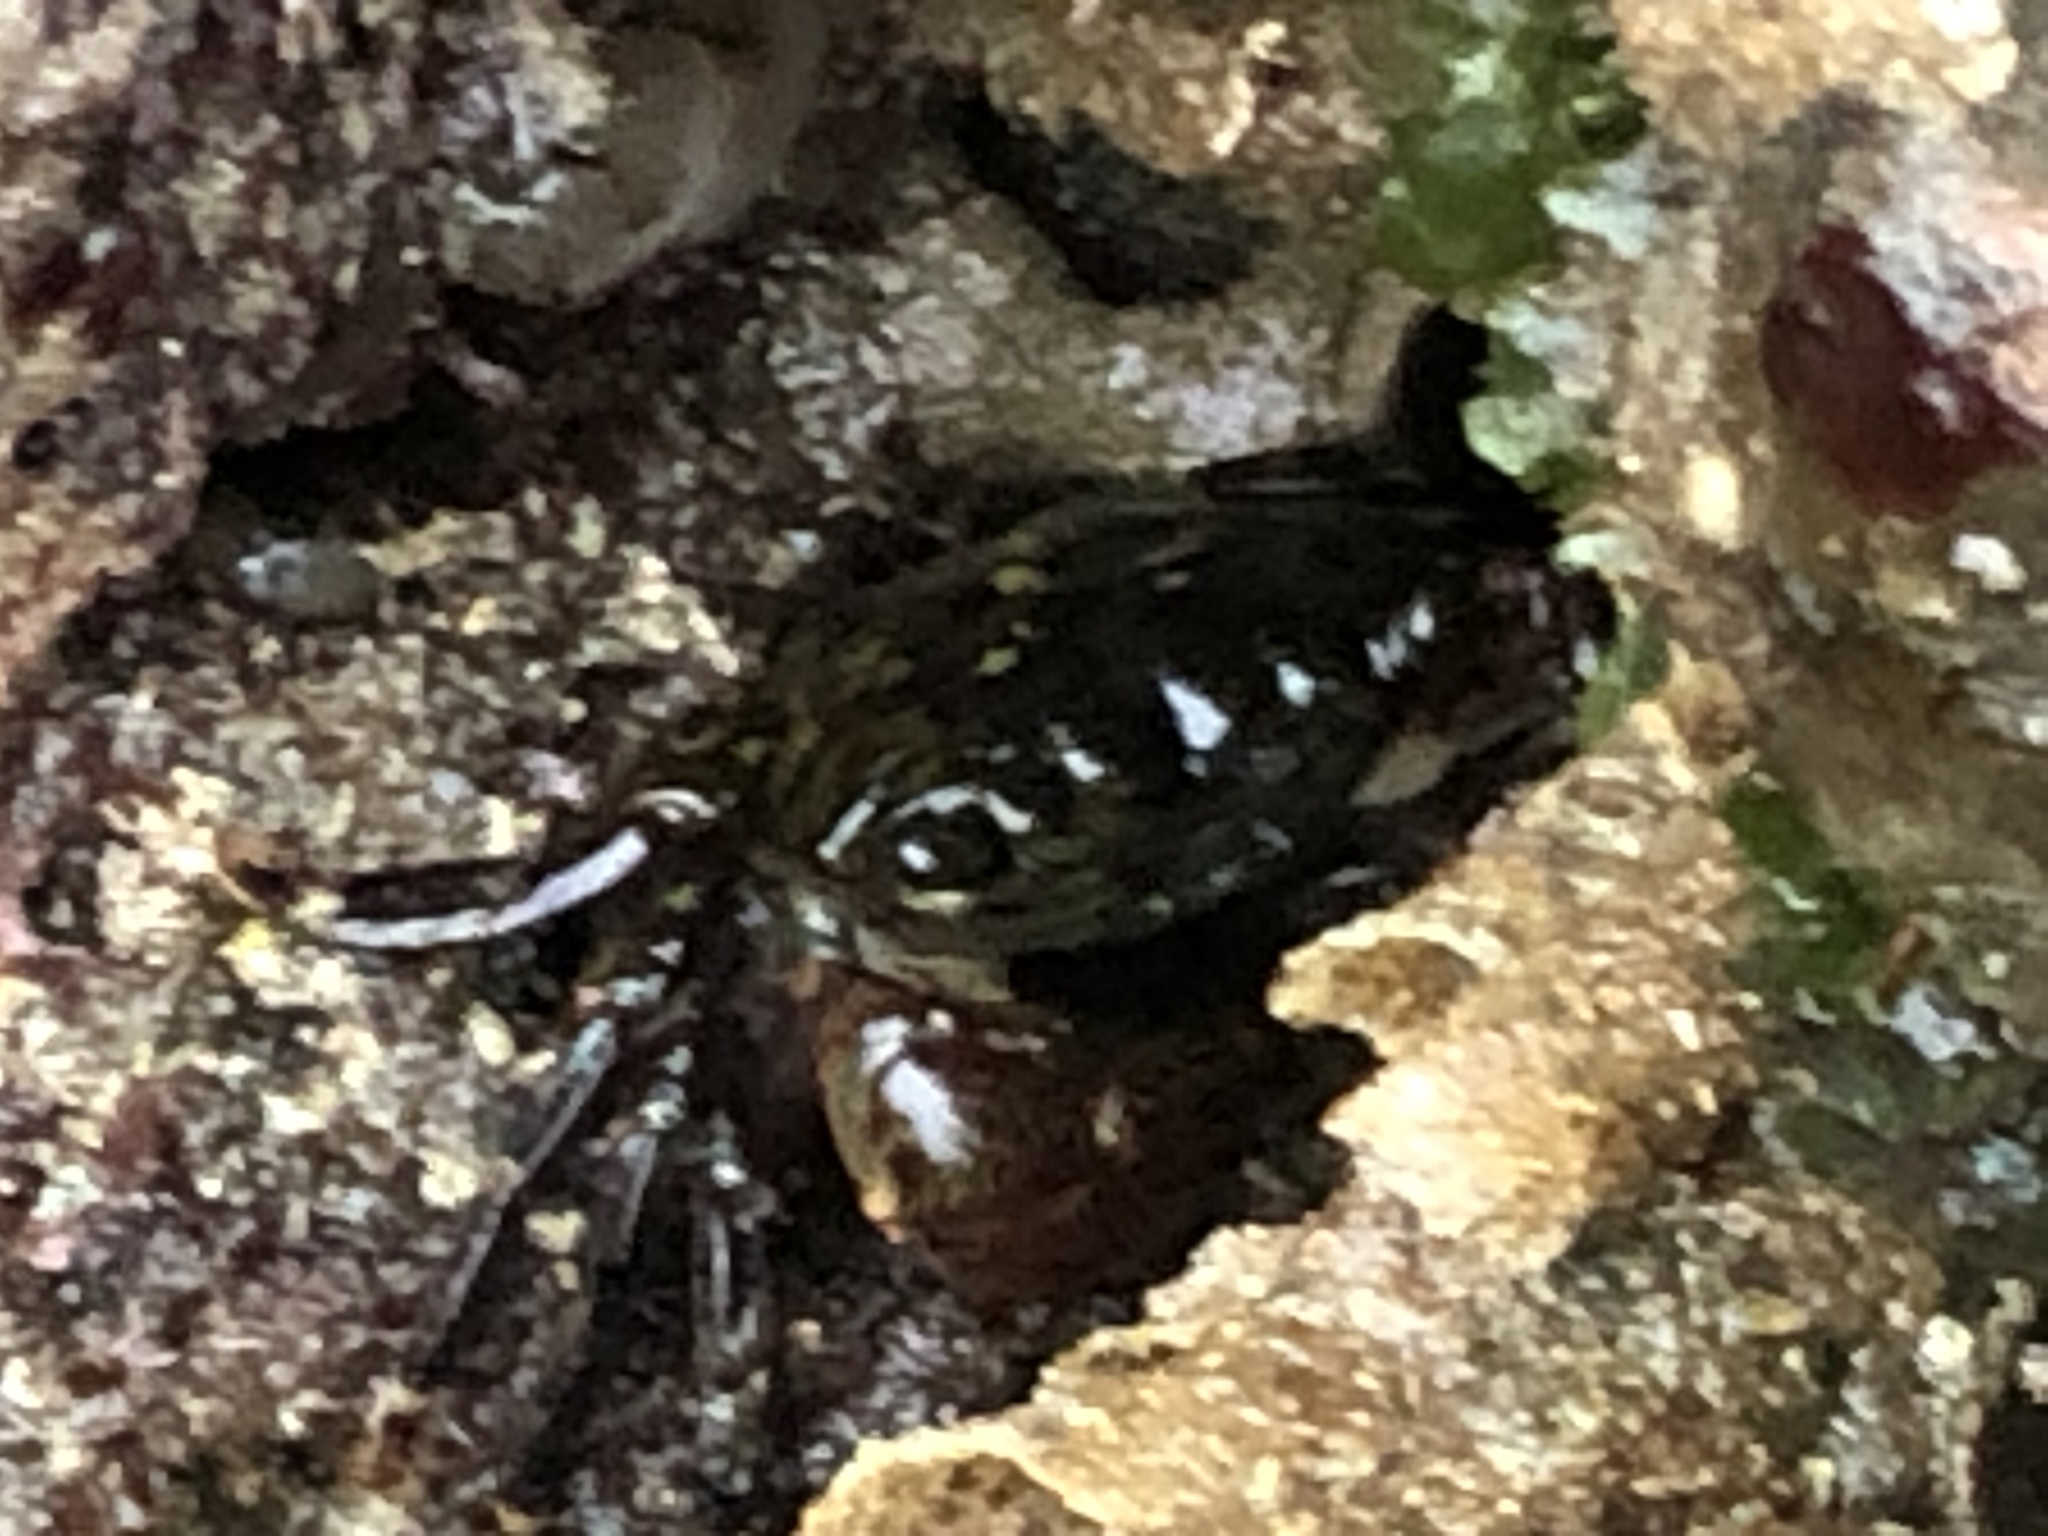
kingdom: Animalia
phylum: Arthropoda
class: Malacostraca
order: Decapoda
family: Grapsidae
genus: Pachygrapsus
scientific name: Pachygrapsus crassipes
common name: Striped shore crab
